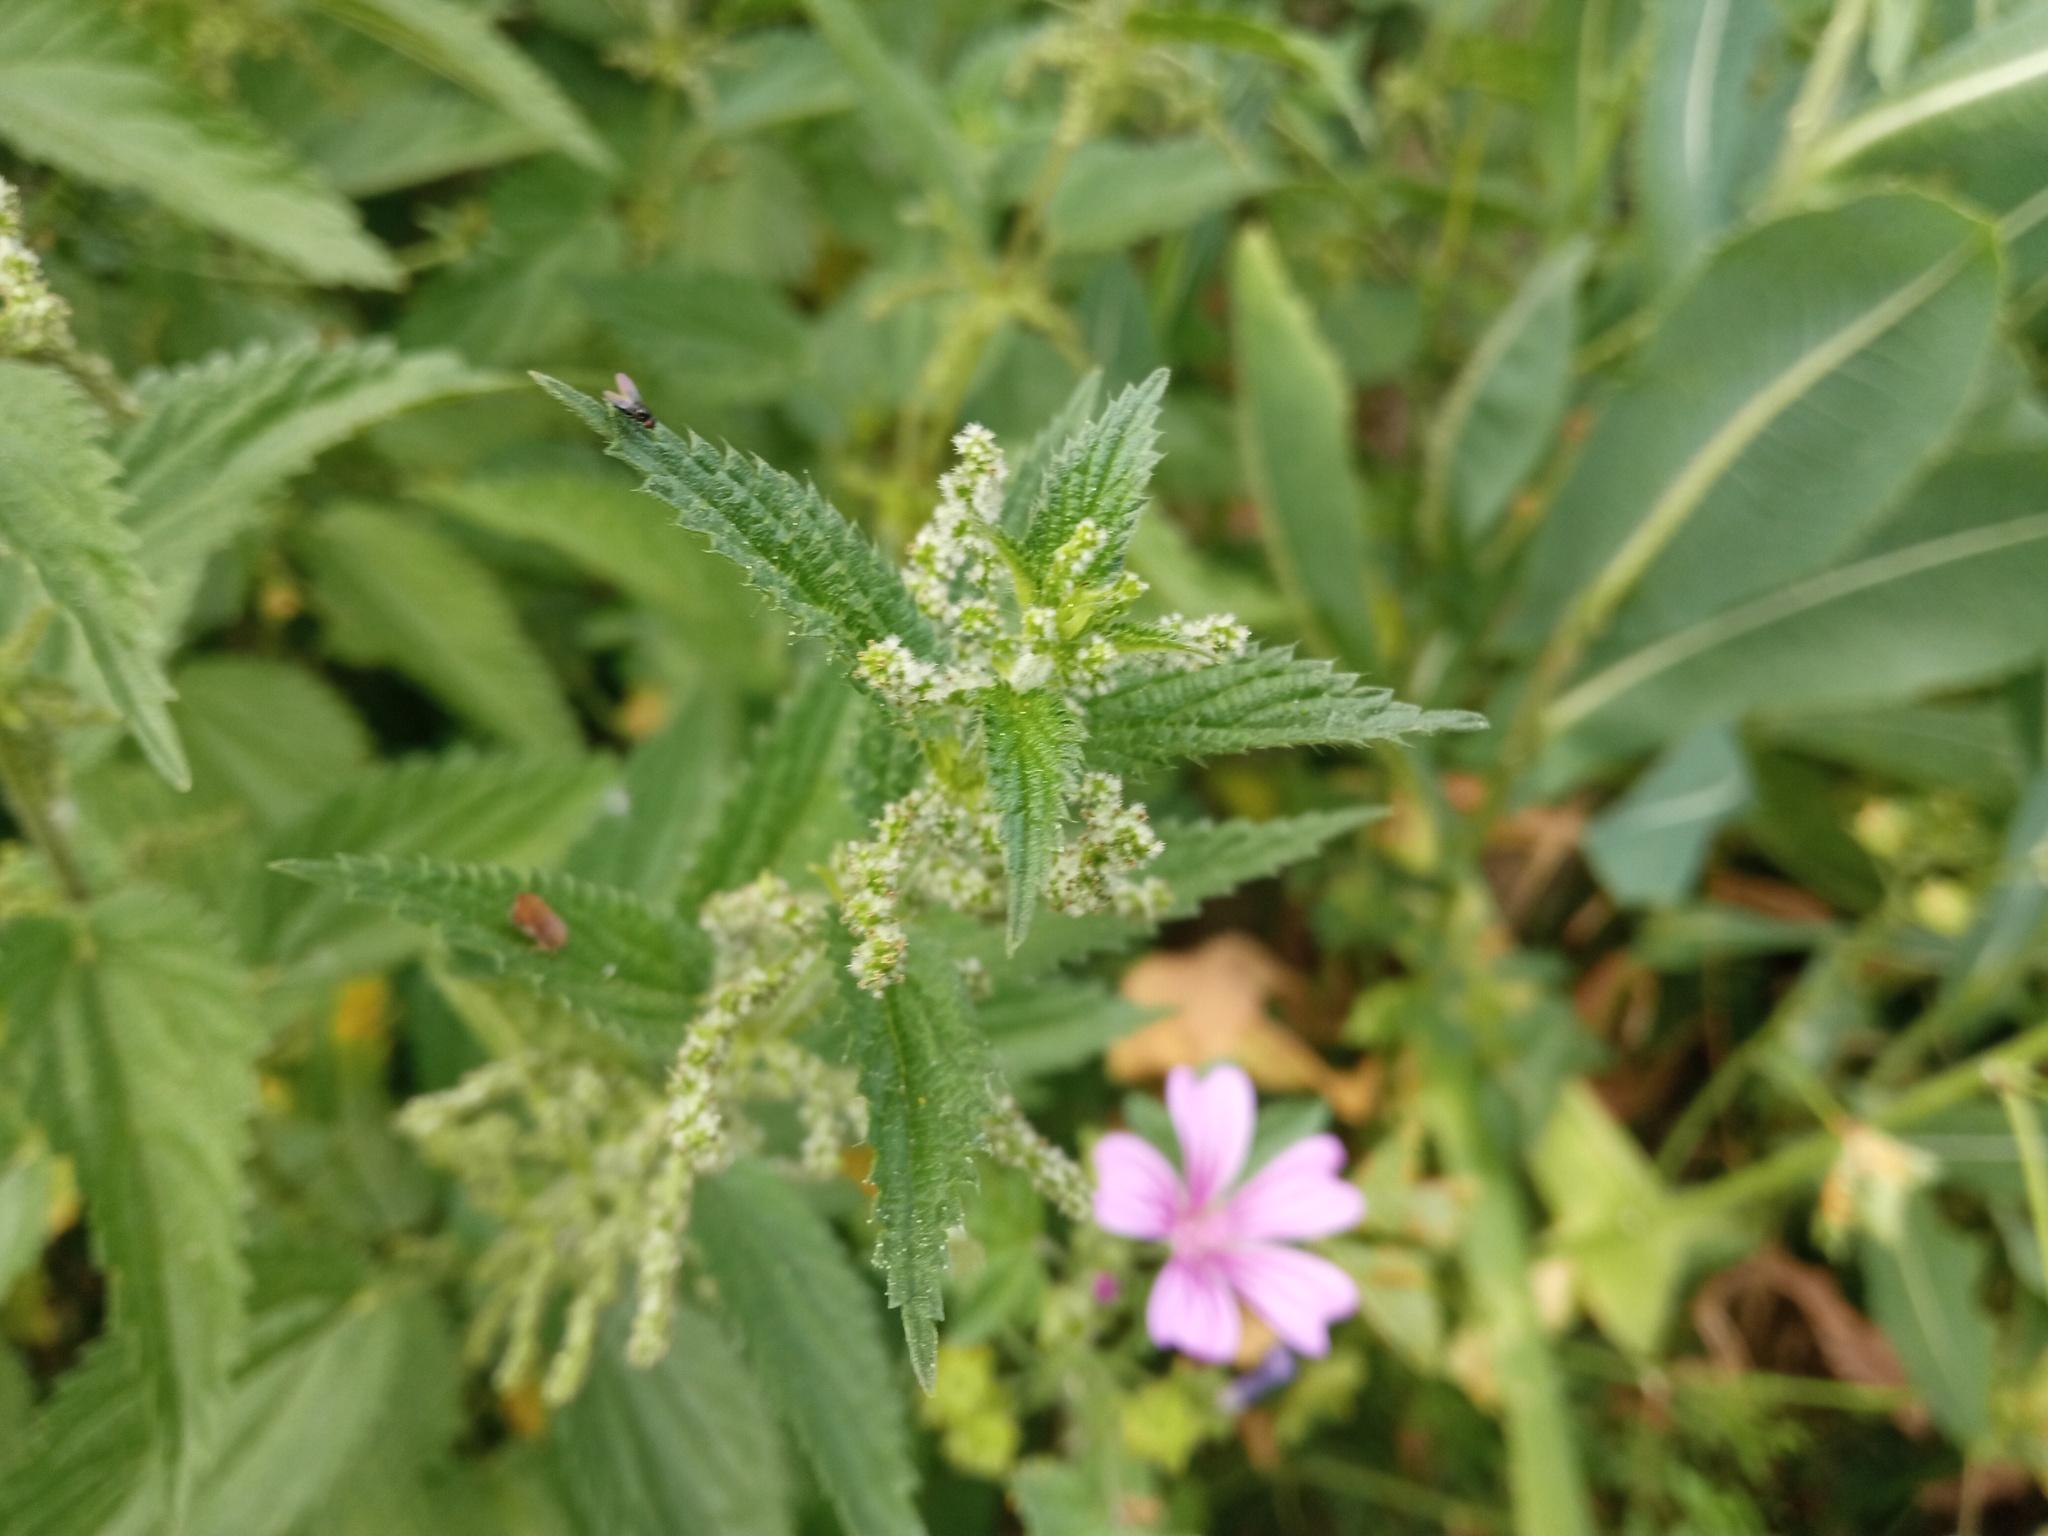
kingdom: Plantae
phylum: Tracheophyta
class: Magnoliopsida
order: Rosales
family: Urticaceae
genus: Urtica
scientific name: Urtica dioica
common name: Common nettle
